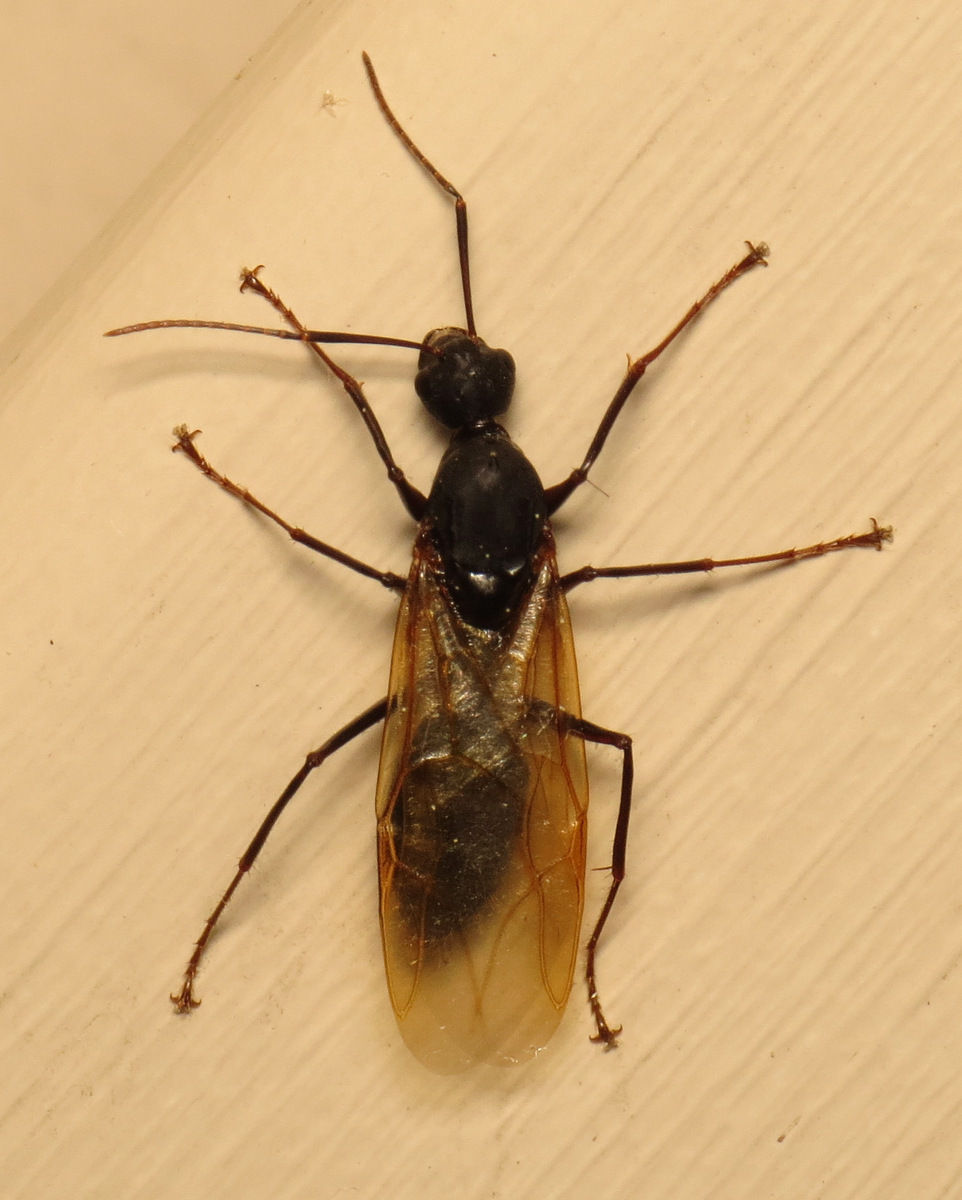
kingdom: Animalia
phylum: Arthropoda
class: Insecta
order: Hymenoptera
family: Formicidae
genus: Camponotus
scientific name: Camponotus pennsylvanicus
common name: Black carpenter ant
